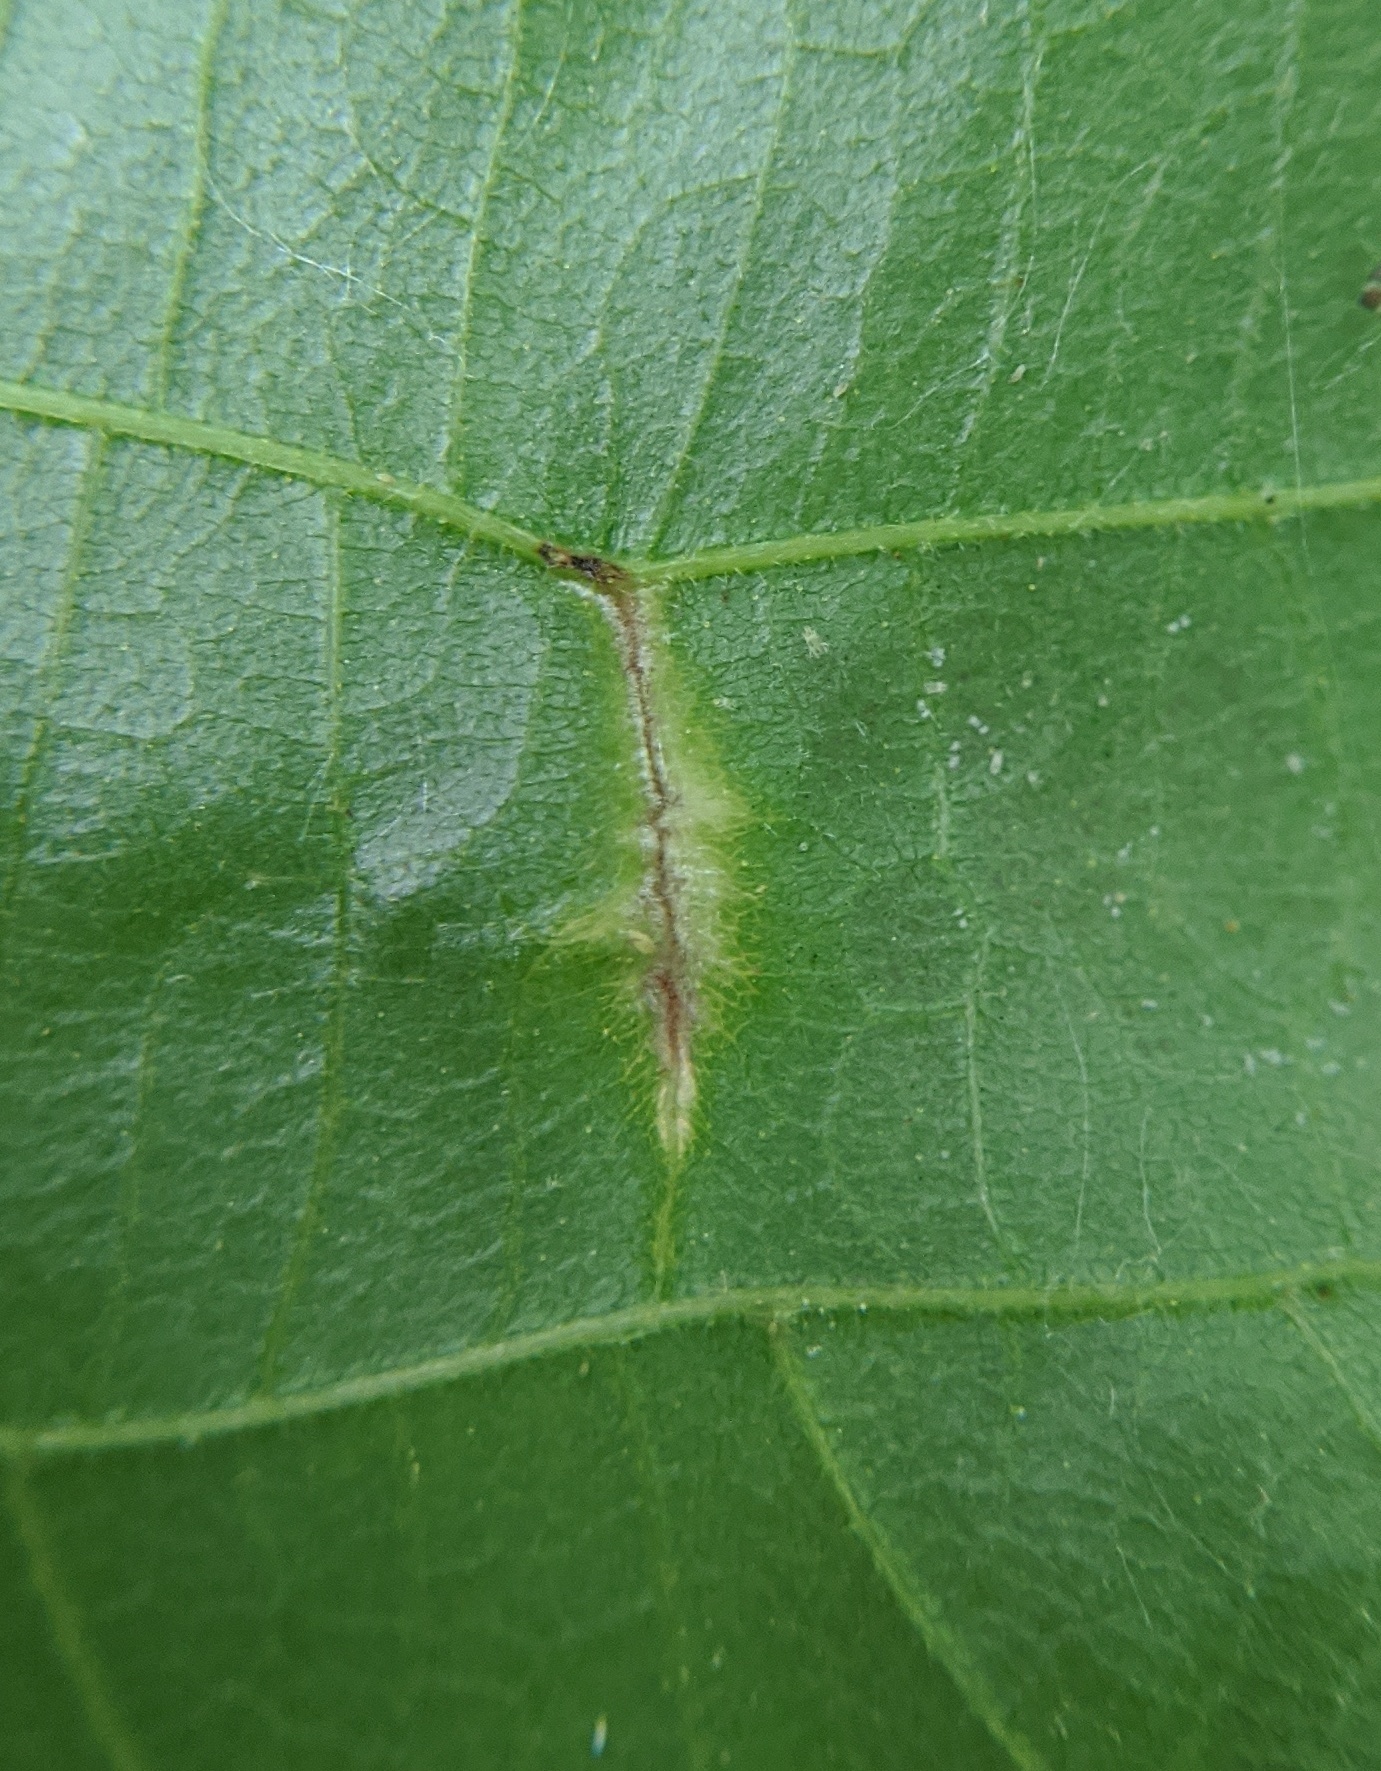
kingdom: Animalia
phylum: Arthropoda
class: Insecta
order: Hemiptera
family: Phylloxeridae
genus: Phylloxera
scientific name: Phylloxera caryaevenae
